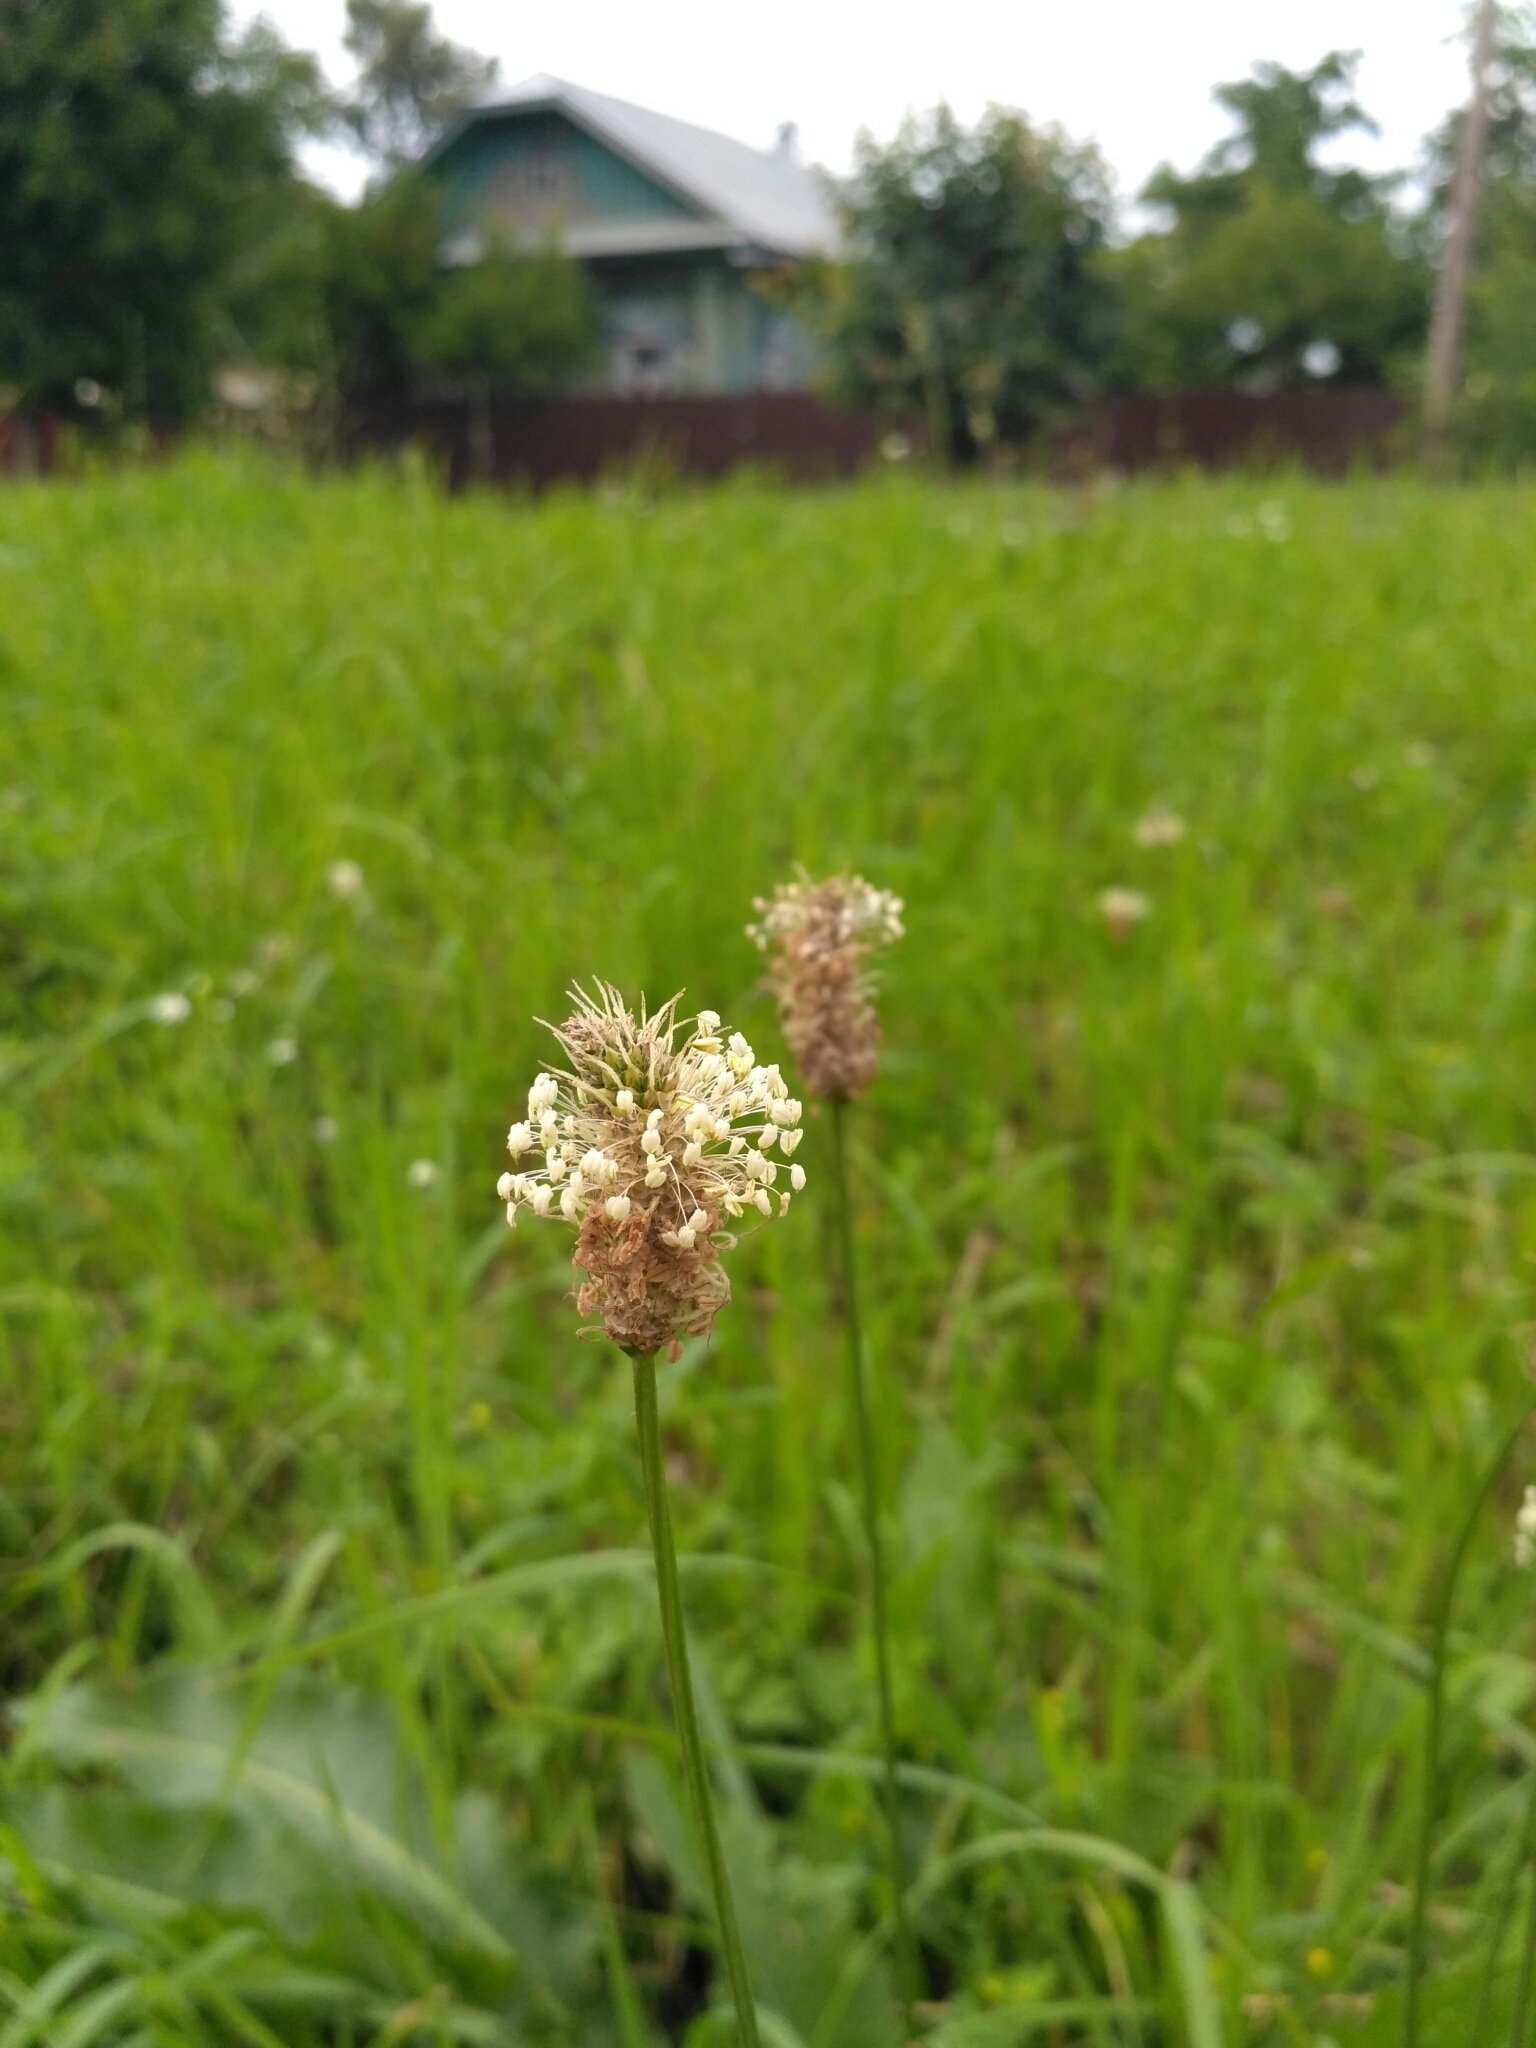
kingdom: Plantae
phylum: Tracheophyta
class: Magnoliopsida
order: Lamiales
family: Plantaginaceae
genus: Plantago
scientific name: Plantago lanceolata
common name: Ribwort plantain
